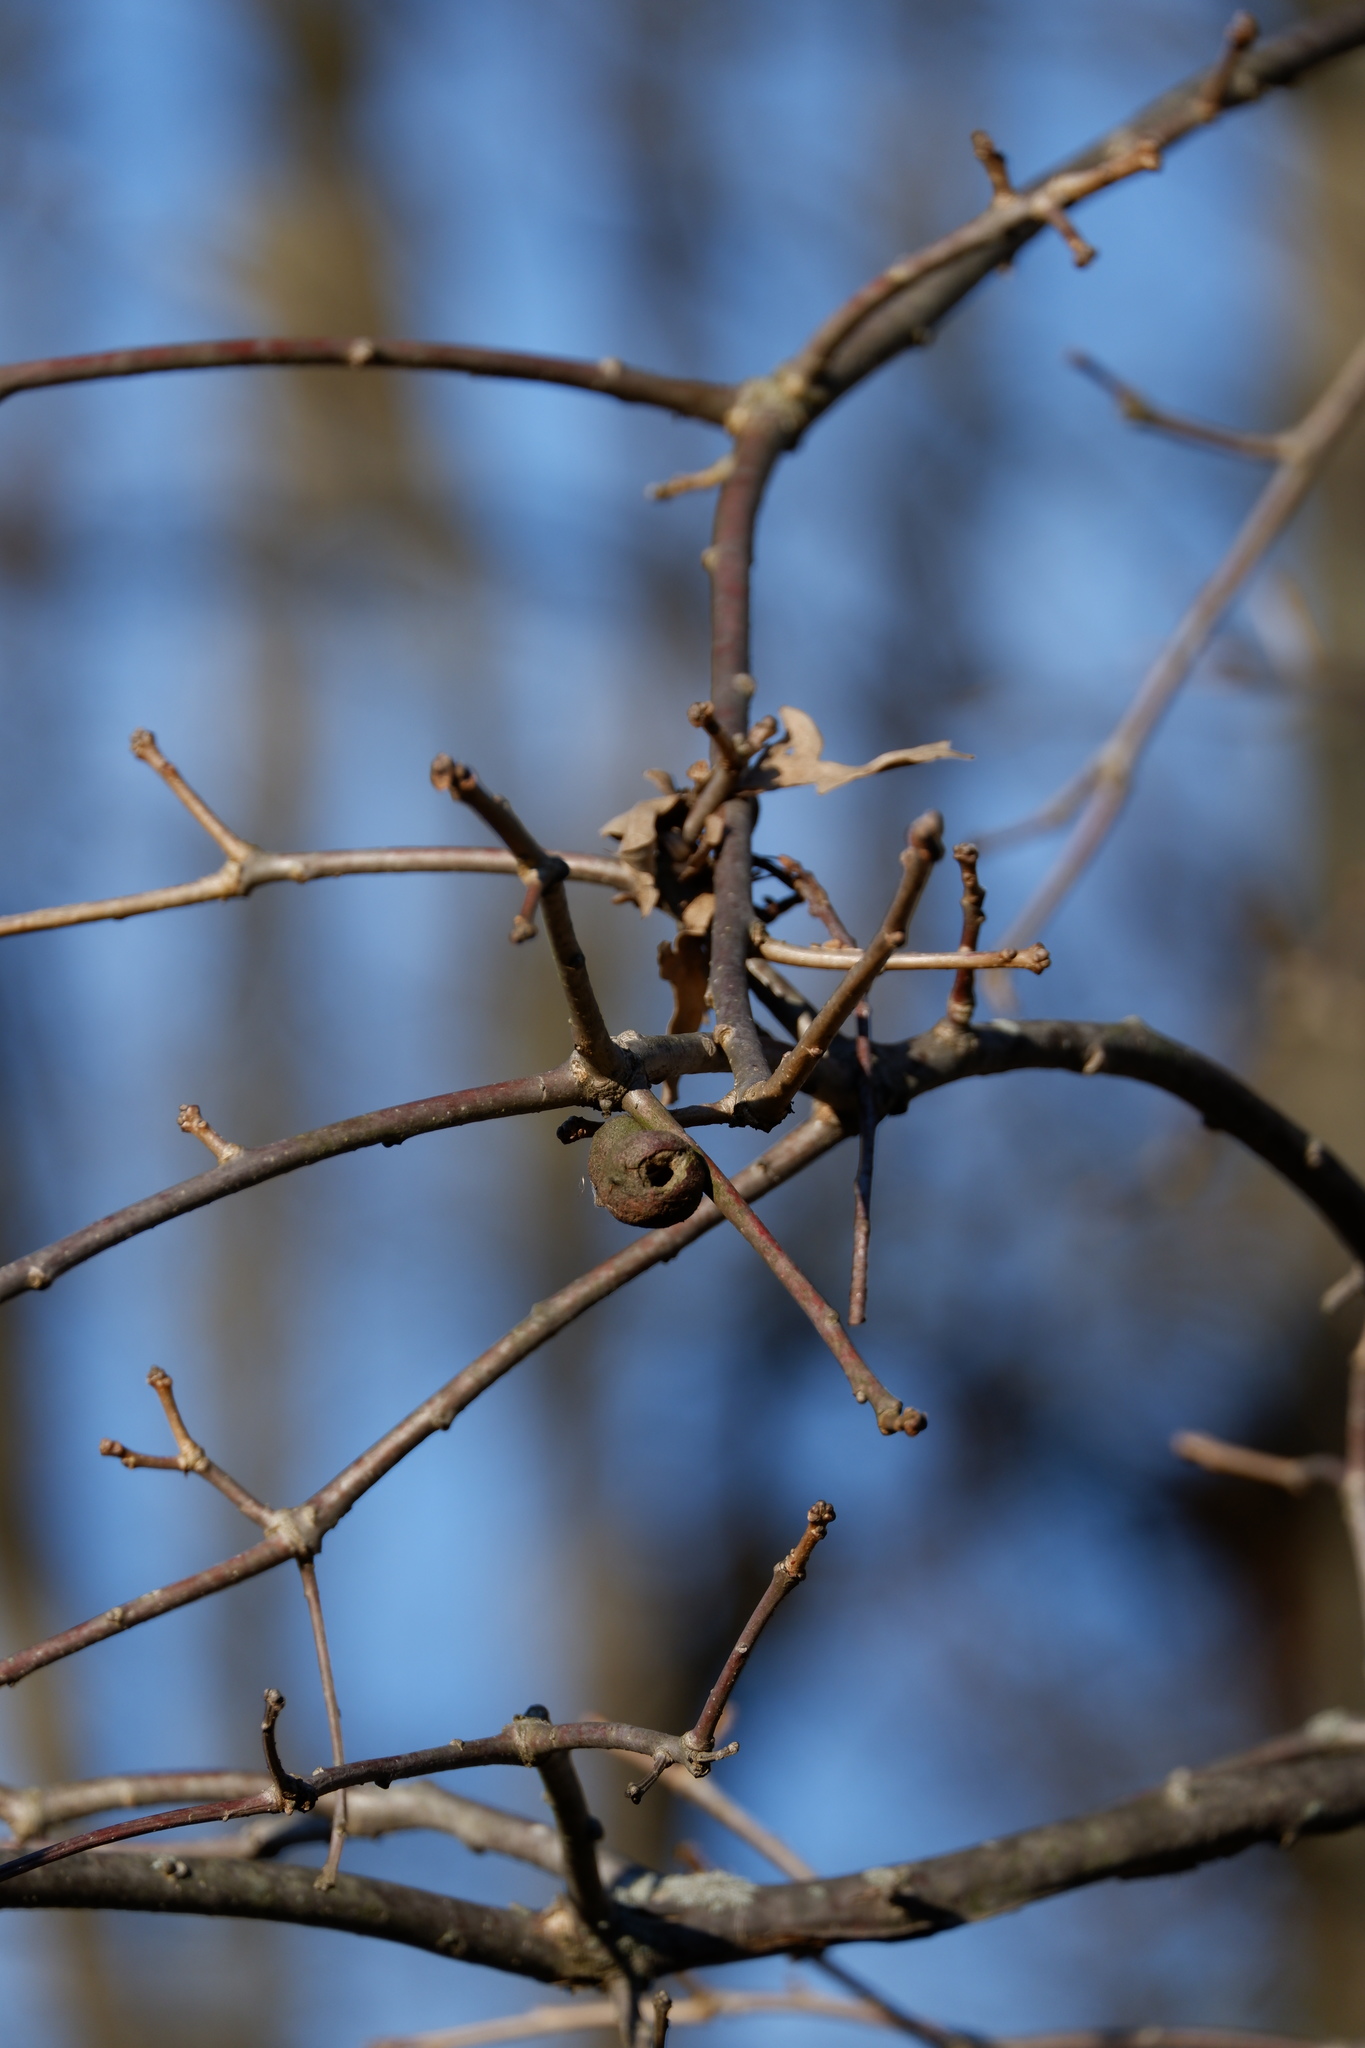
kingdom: Animalia
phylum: Arthropoda
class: Insecta
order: Hymenoptera
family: Cynipidae
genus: Disholcaspis
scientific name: Disholcaspis
